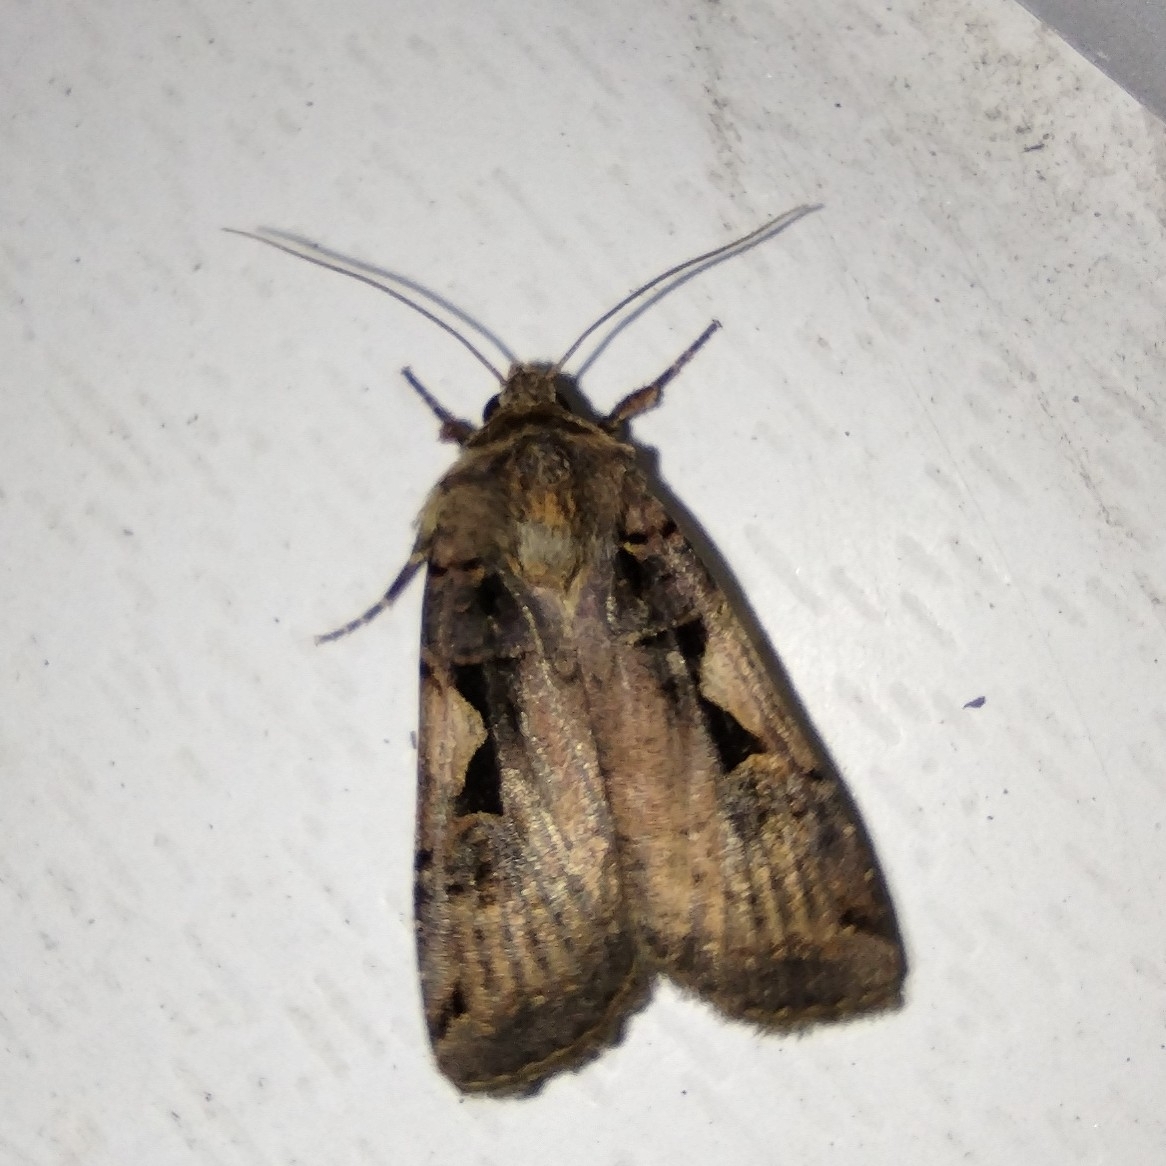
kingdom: Animalia
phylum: Arthropoda
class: Insecta
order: Lepidoptera
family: Noctuidae
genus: Xestia
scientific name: Xestia c-nigrum
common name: Setaceous hebrew character
